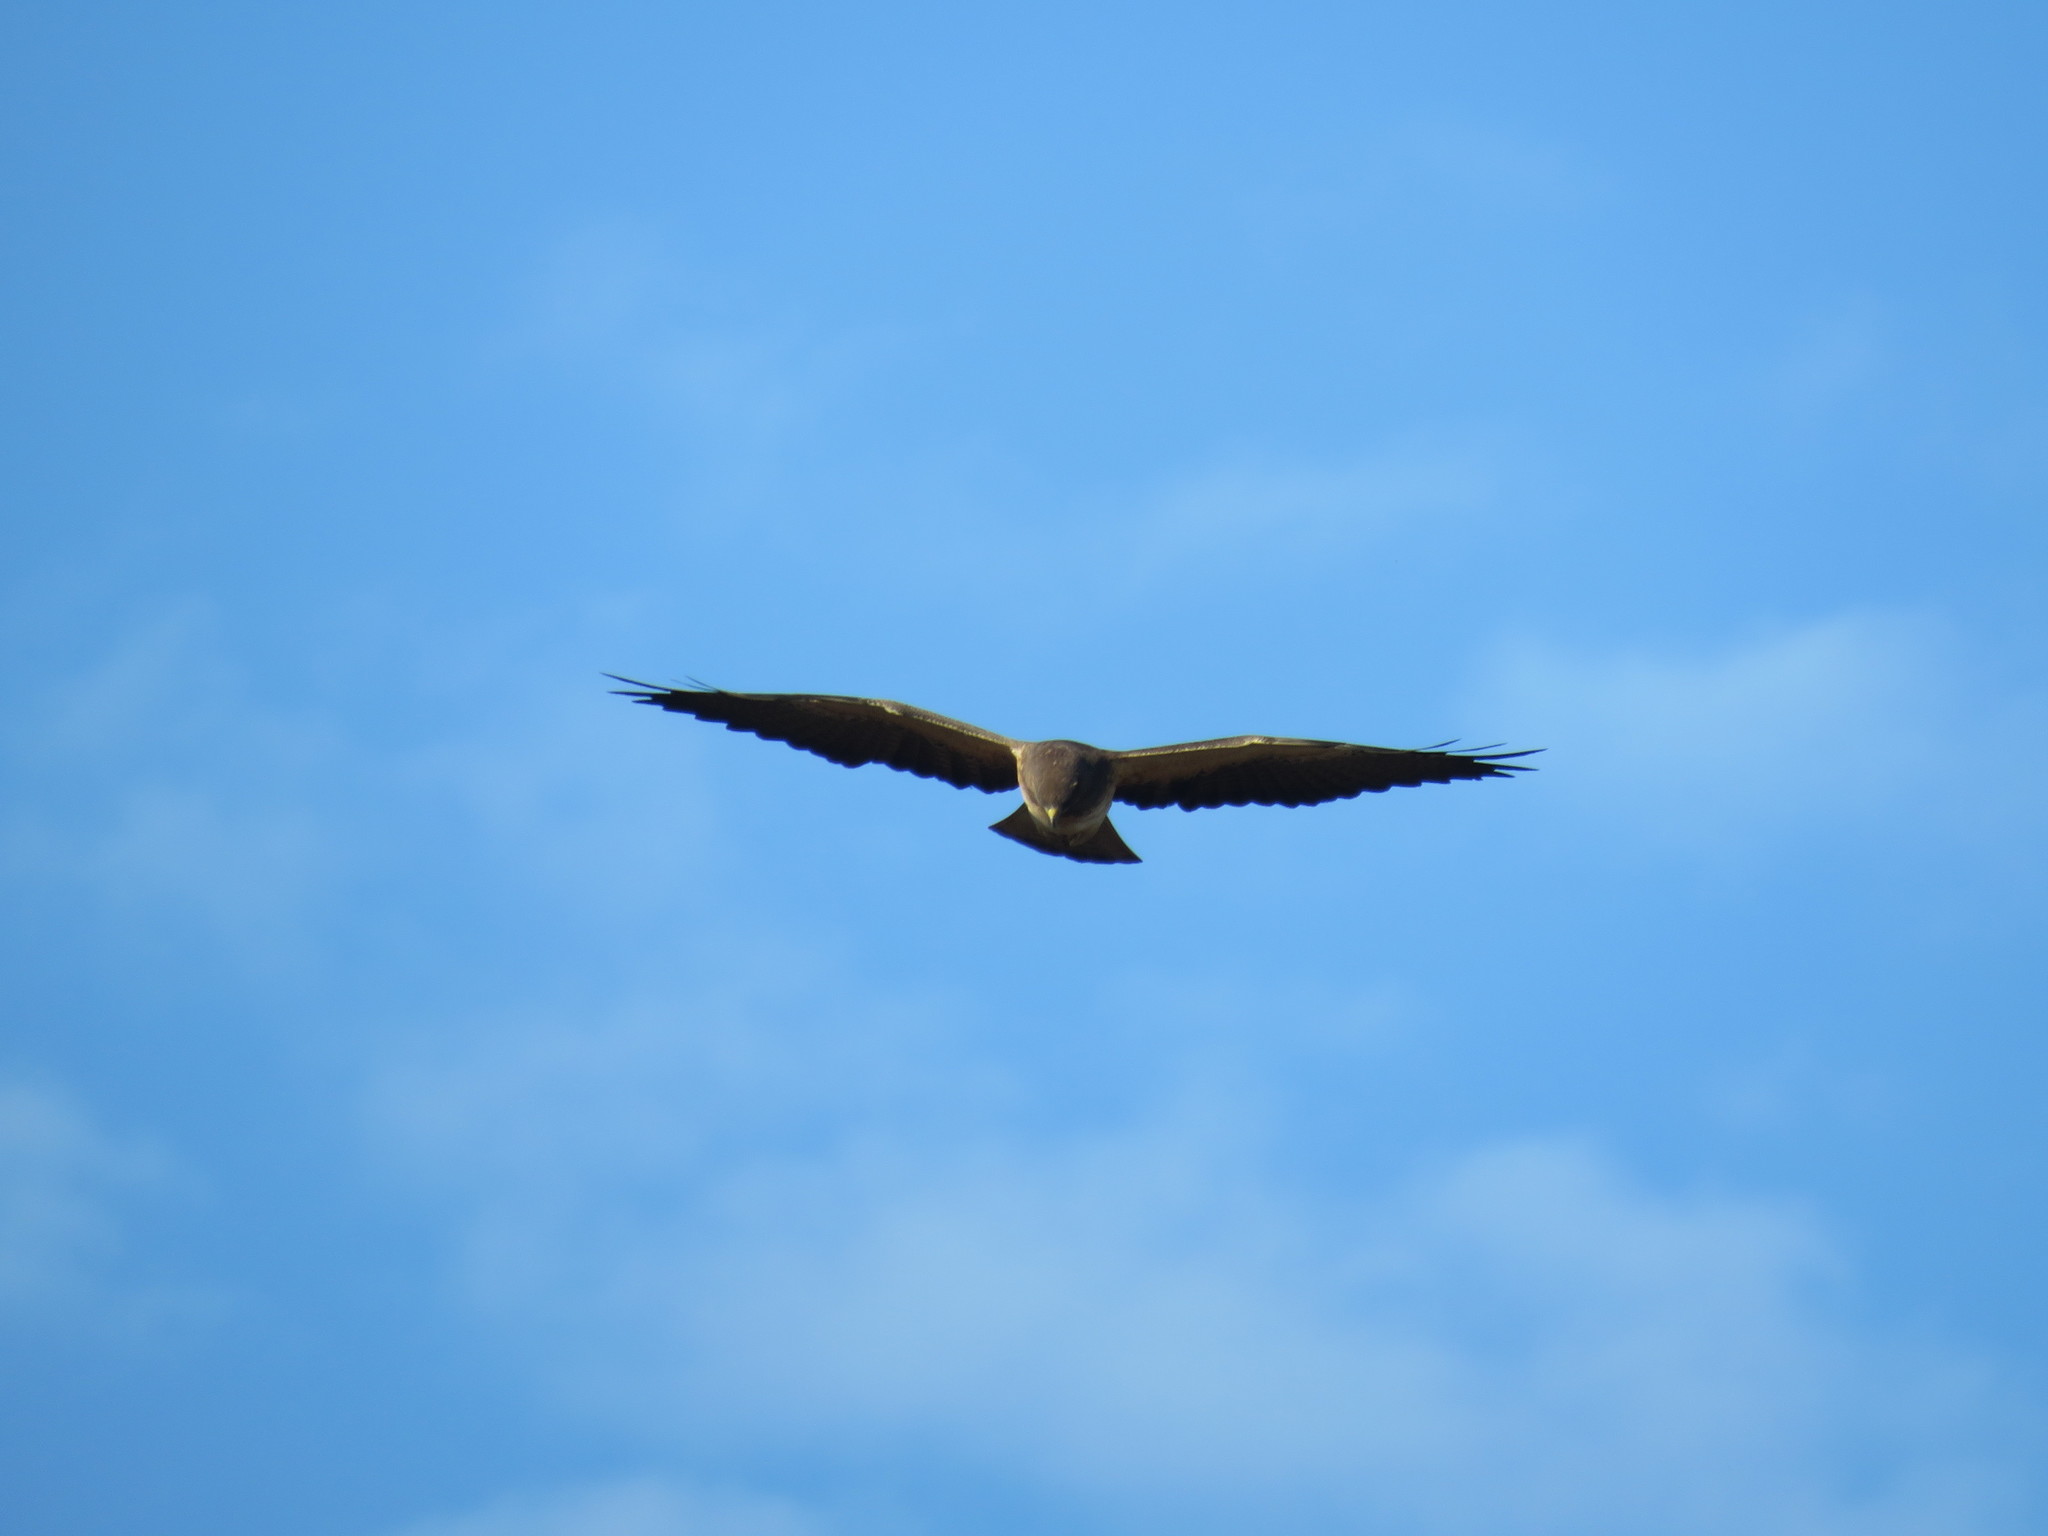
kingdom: Animalia
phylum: Chordata
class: Aves
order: Accipitriformes
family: Accipitridae
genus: Buteo
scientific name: Buteo swainsoni
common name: Swainson's hawk
